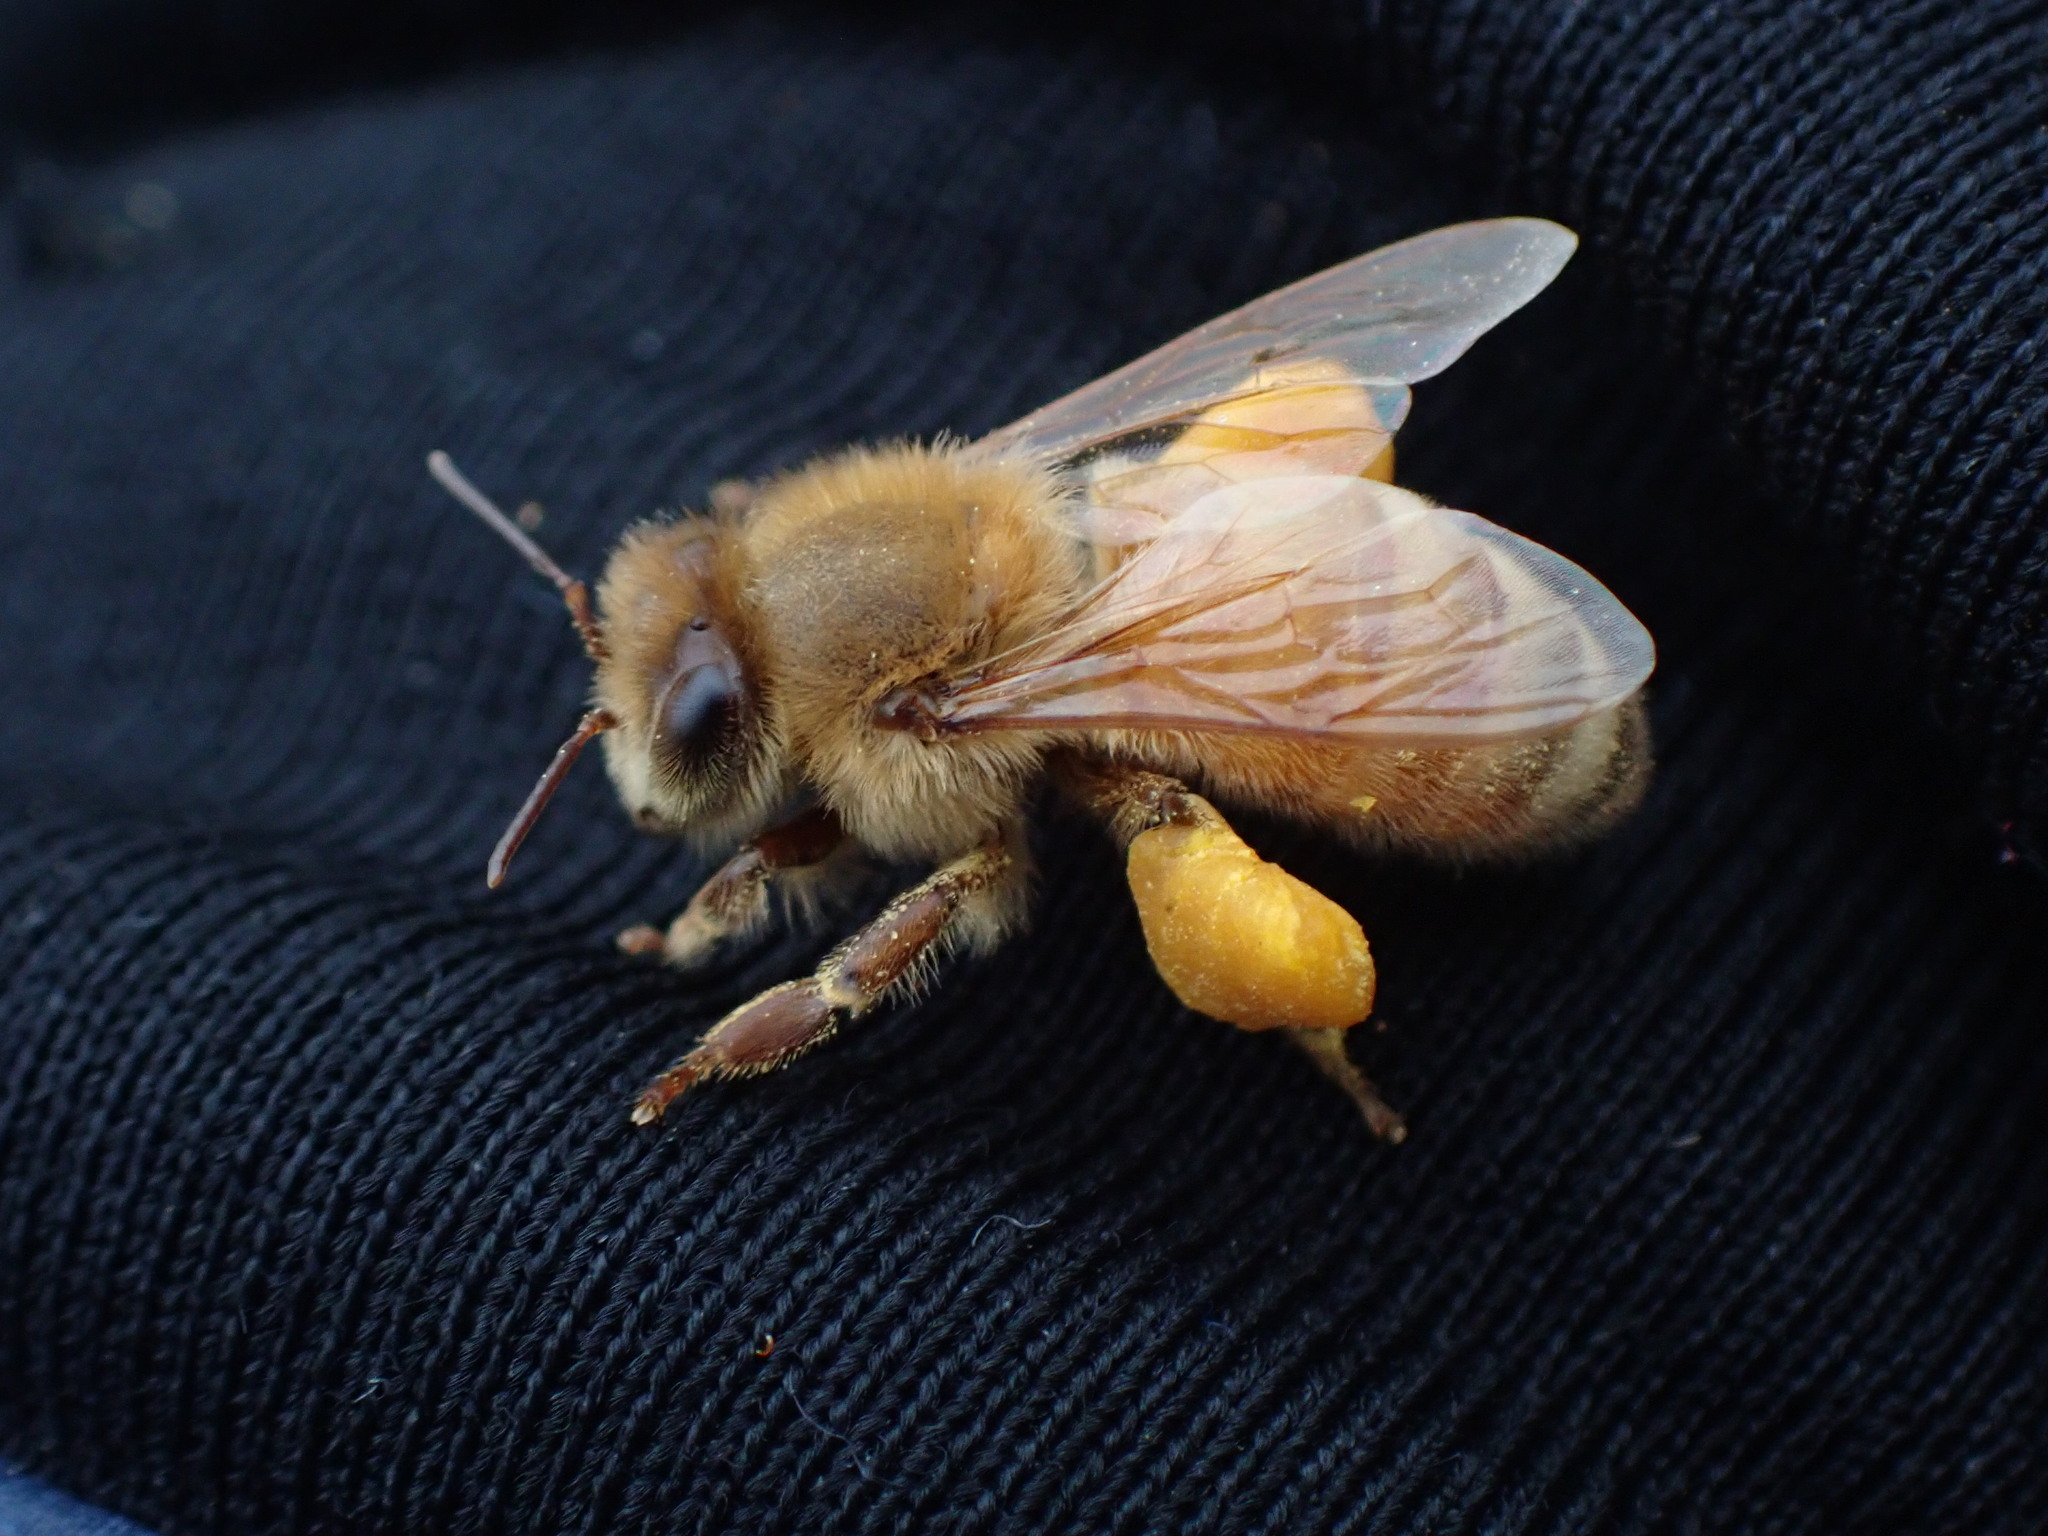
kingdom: Animalia
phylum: Arthropoda
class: Insecta
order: Hymenoptera
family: Apidae
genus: Apis
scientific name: Apis mellifera
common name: Honey bee
